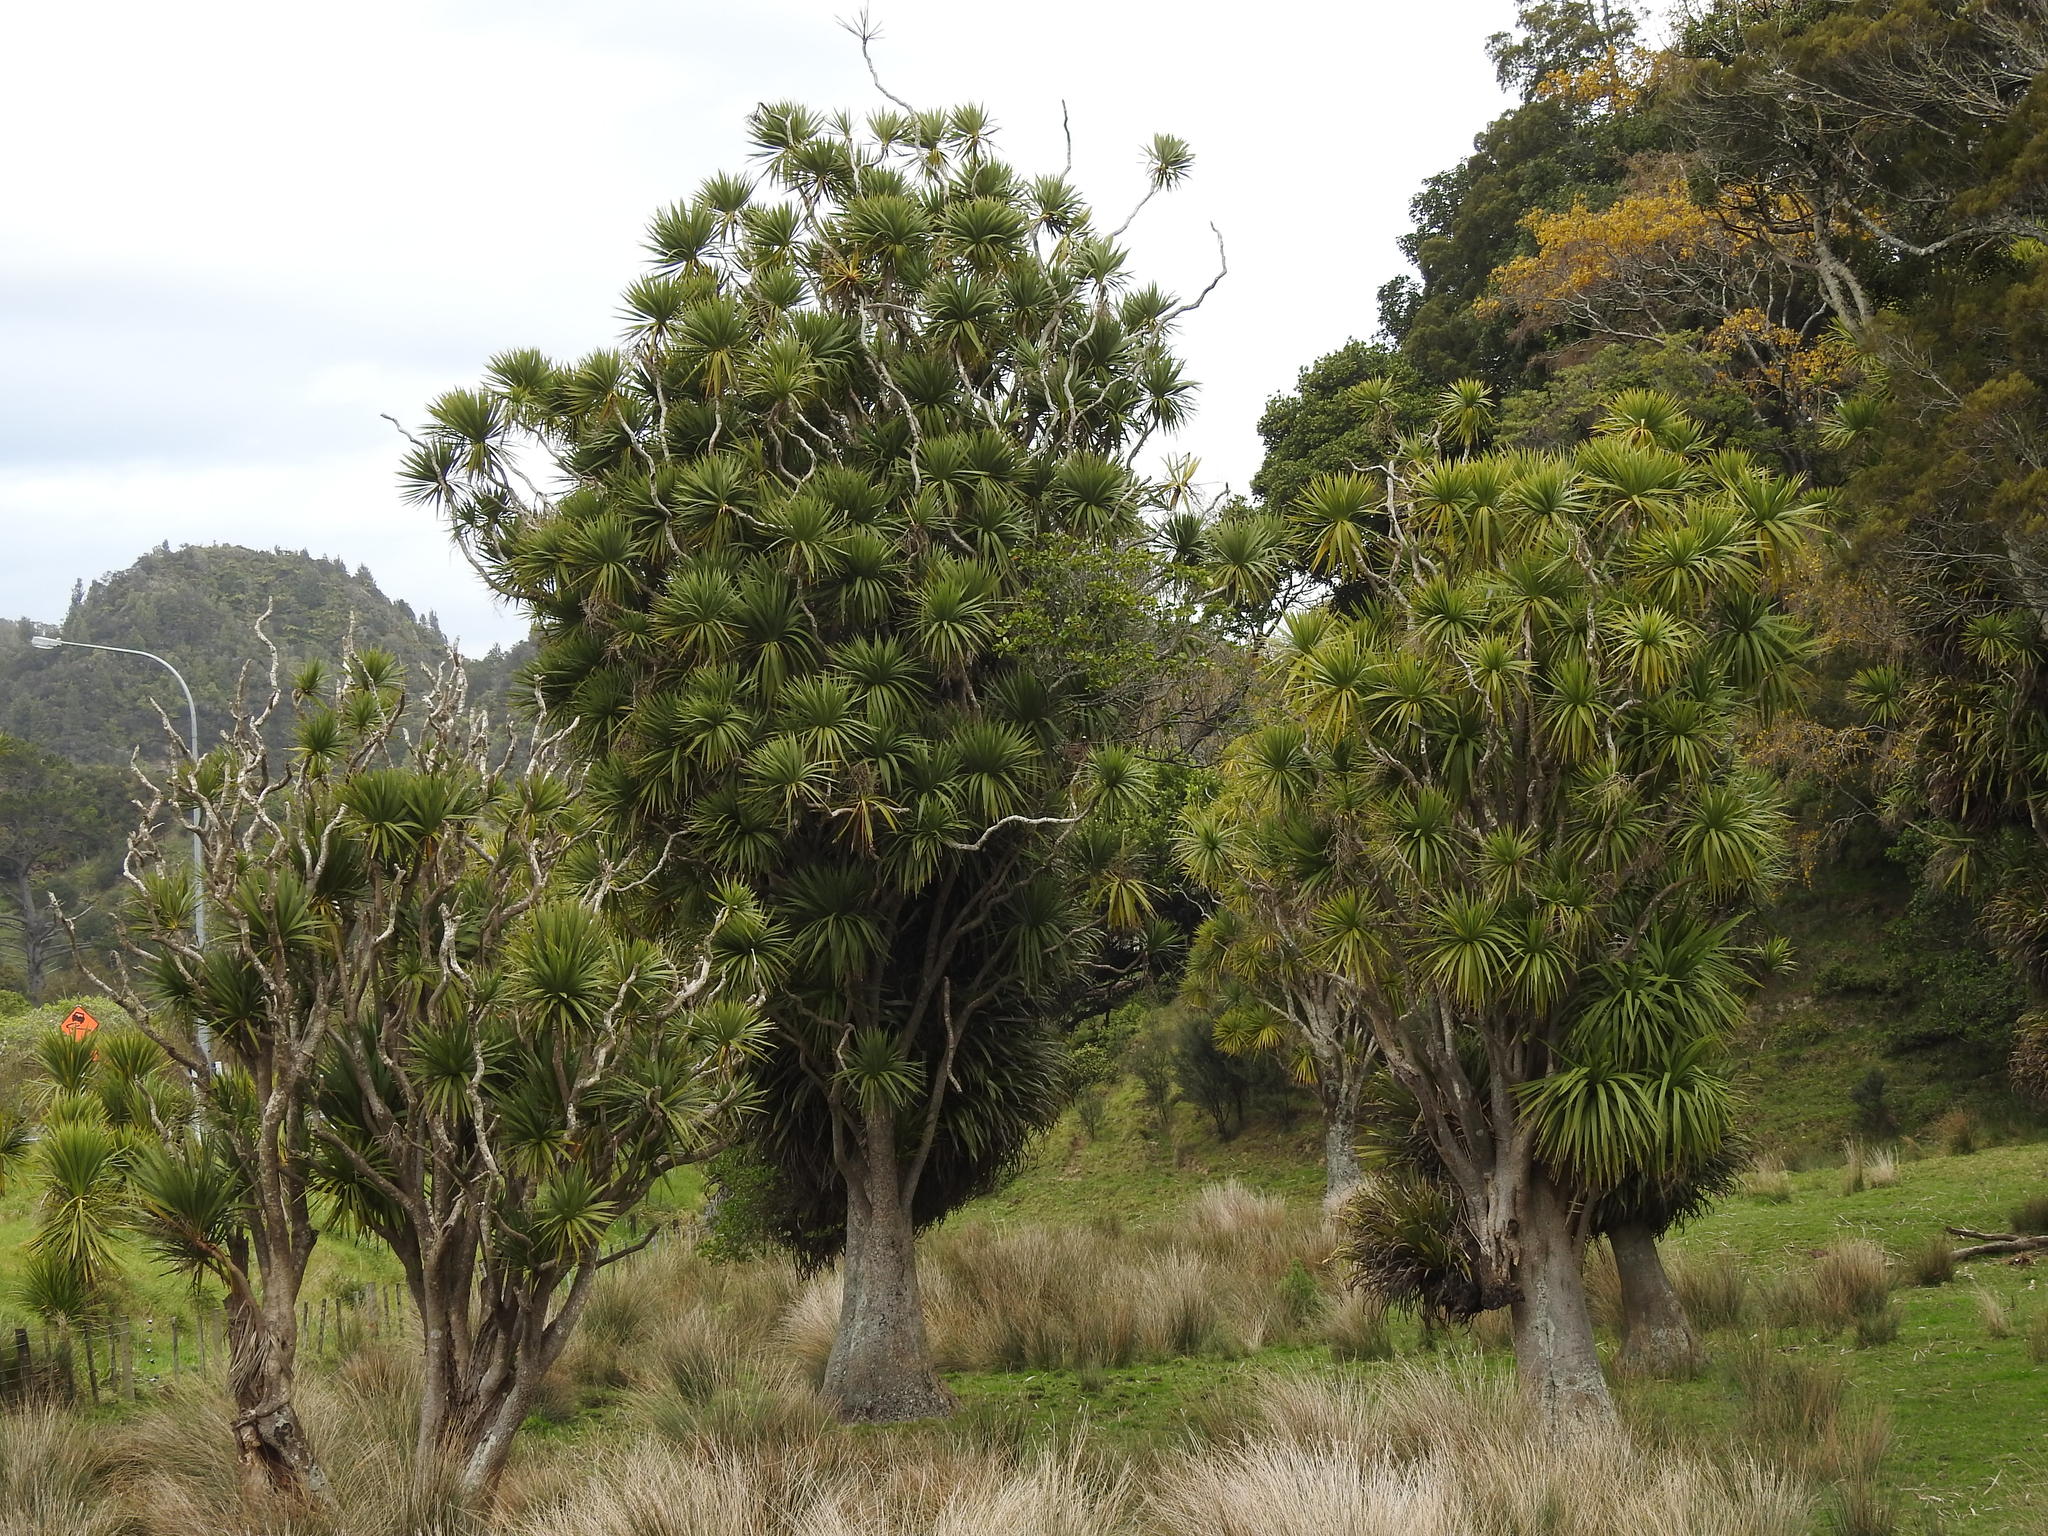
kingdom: Plantae
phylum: Tracheophyta
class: Liliopsida
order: Asparagales
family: Asparagaceae
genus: Cordyline
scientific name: Cordyline australis
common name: Cabbage-palm
